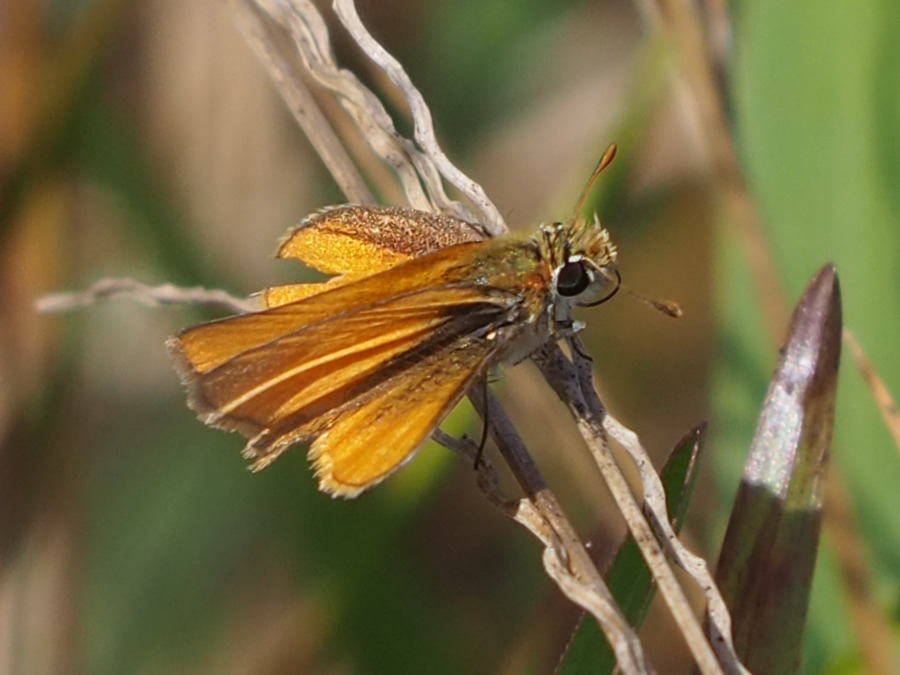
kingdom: Animalia
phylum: Arthropoda
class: Insecta
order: Lepidoptera
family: Hesperiidae
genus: Copaeodes
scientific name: Copaeodes minima
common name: Southern skipperling
